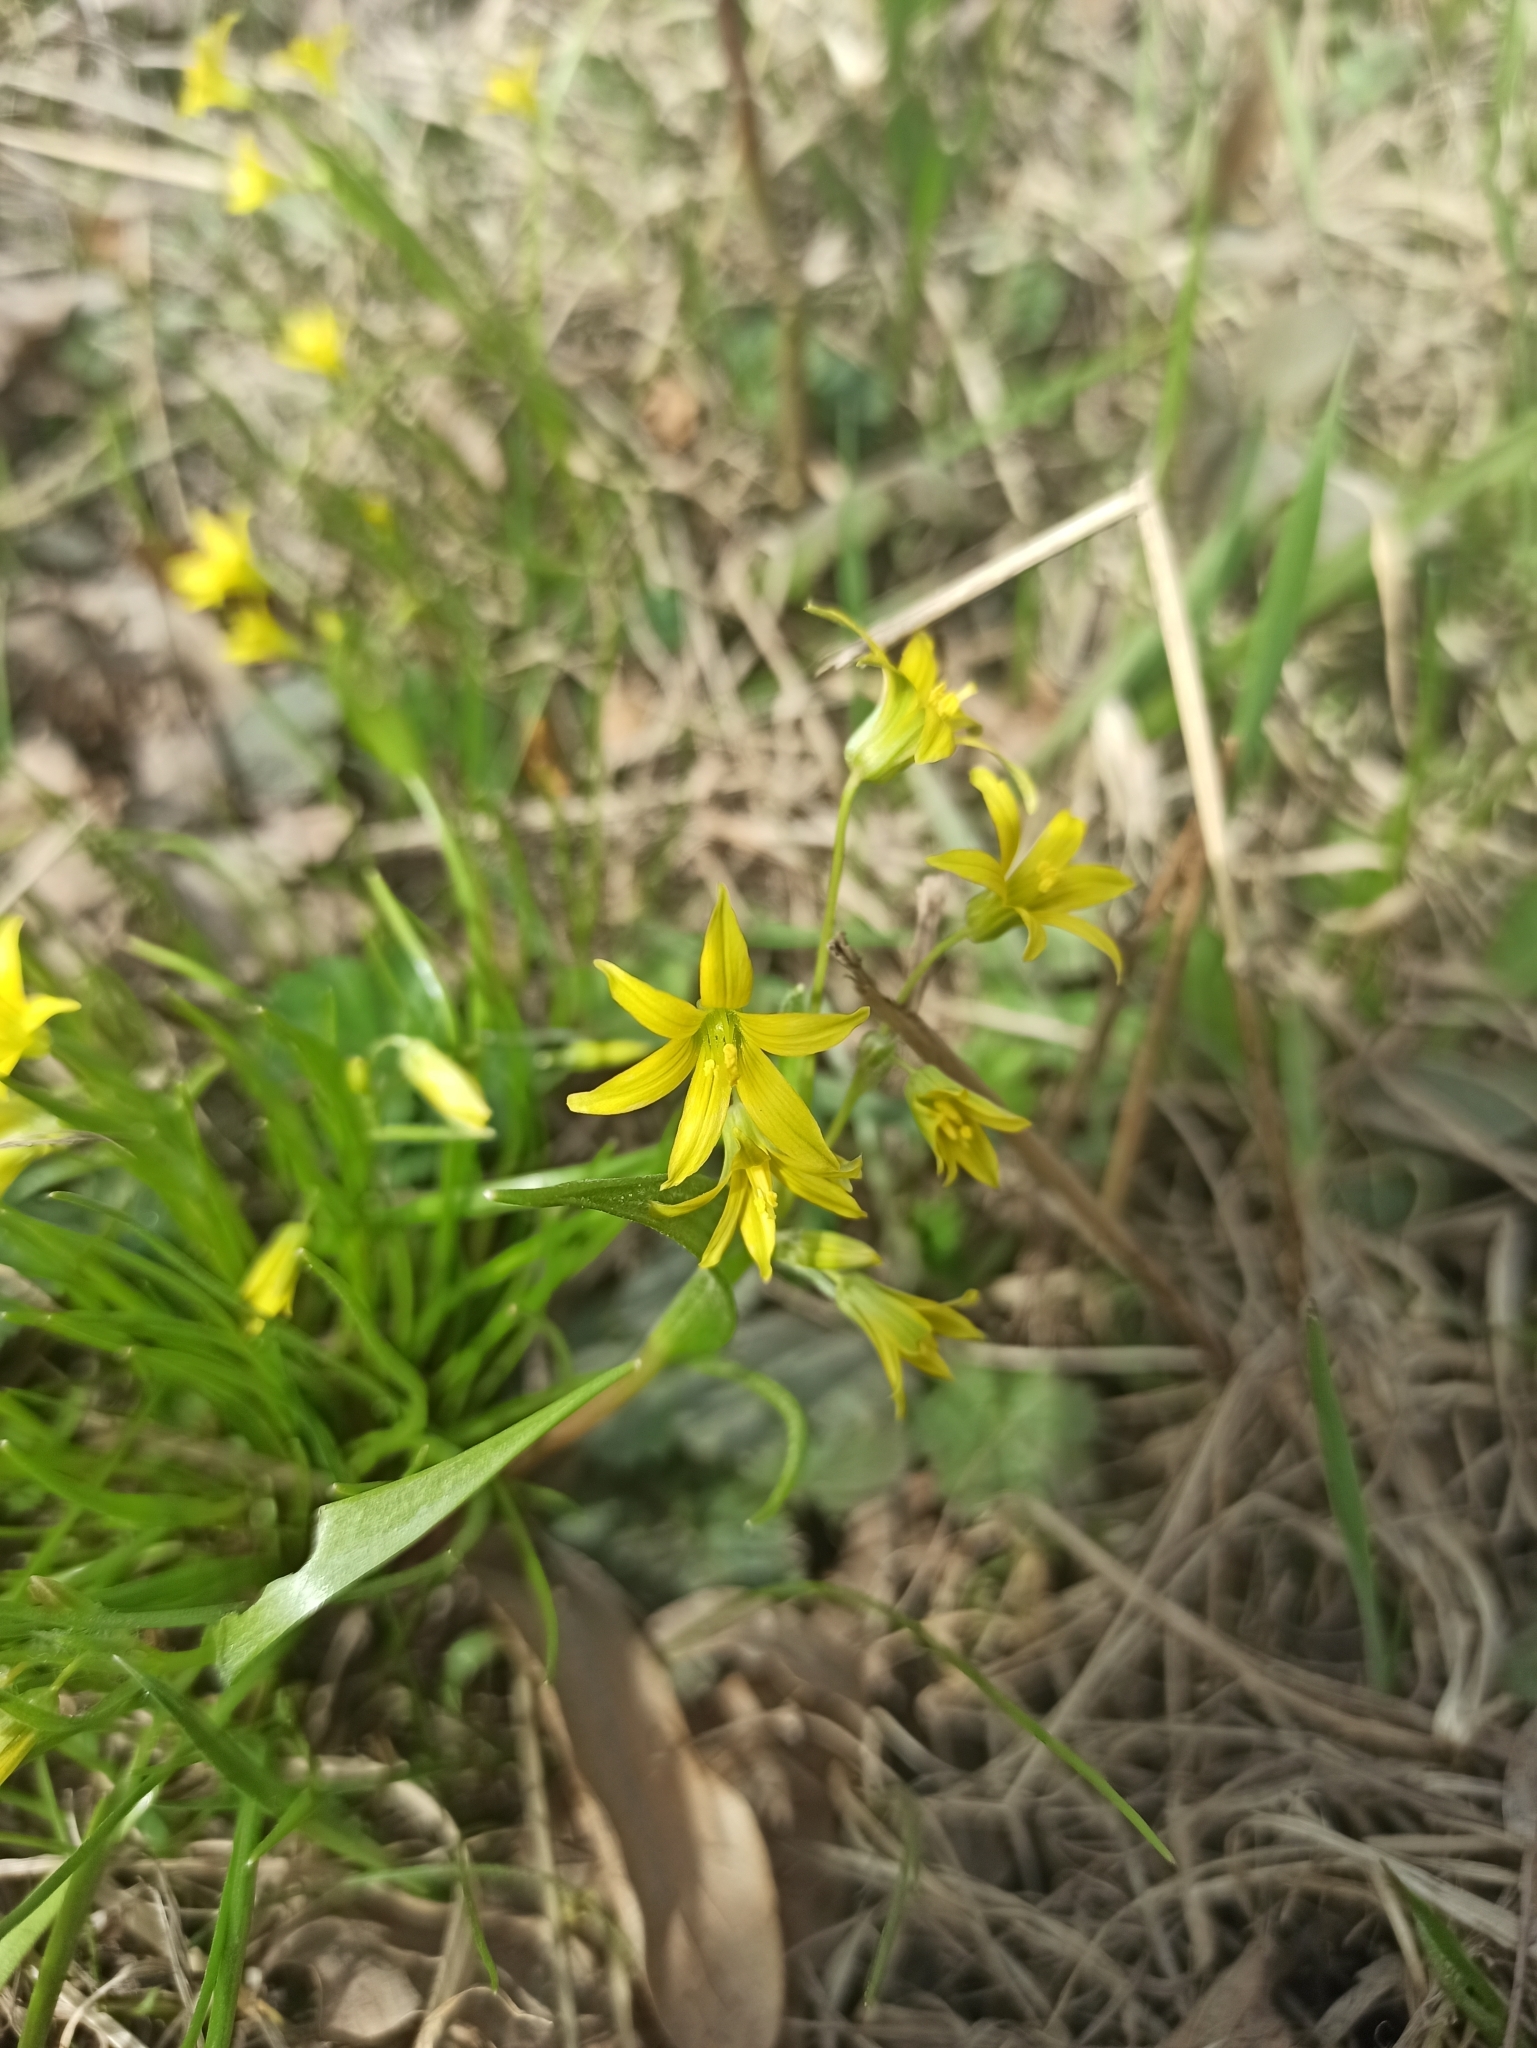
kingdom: Plantae
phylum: Tracheophyta
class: Liliopsida
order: Liliales
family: Liliaceae
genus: Gagea
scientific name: Gagea minima
